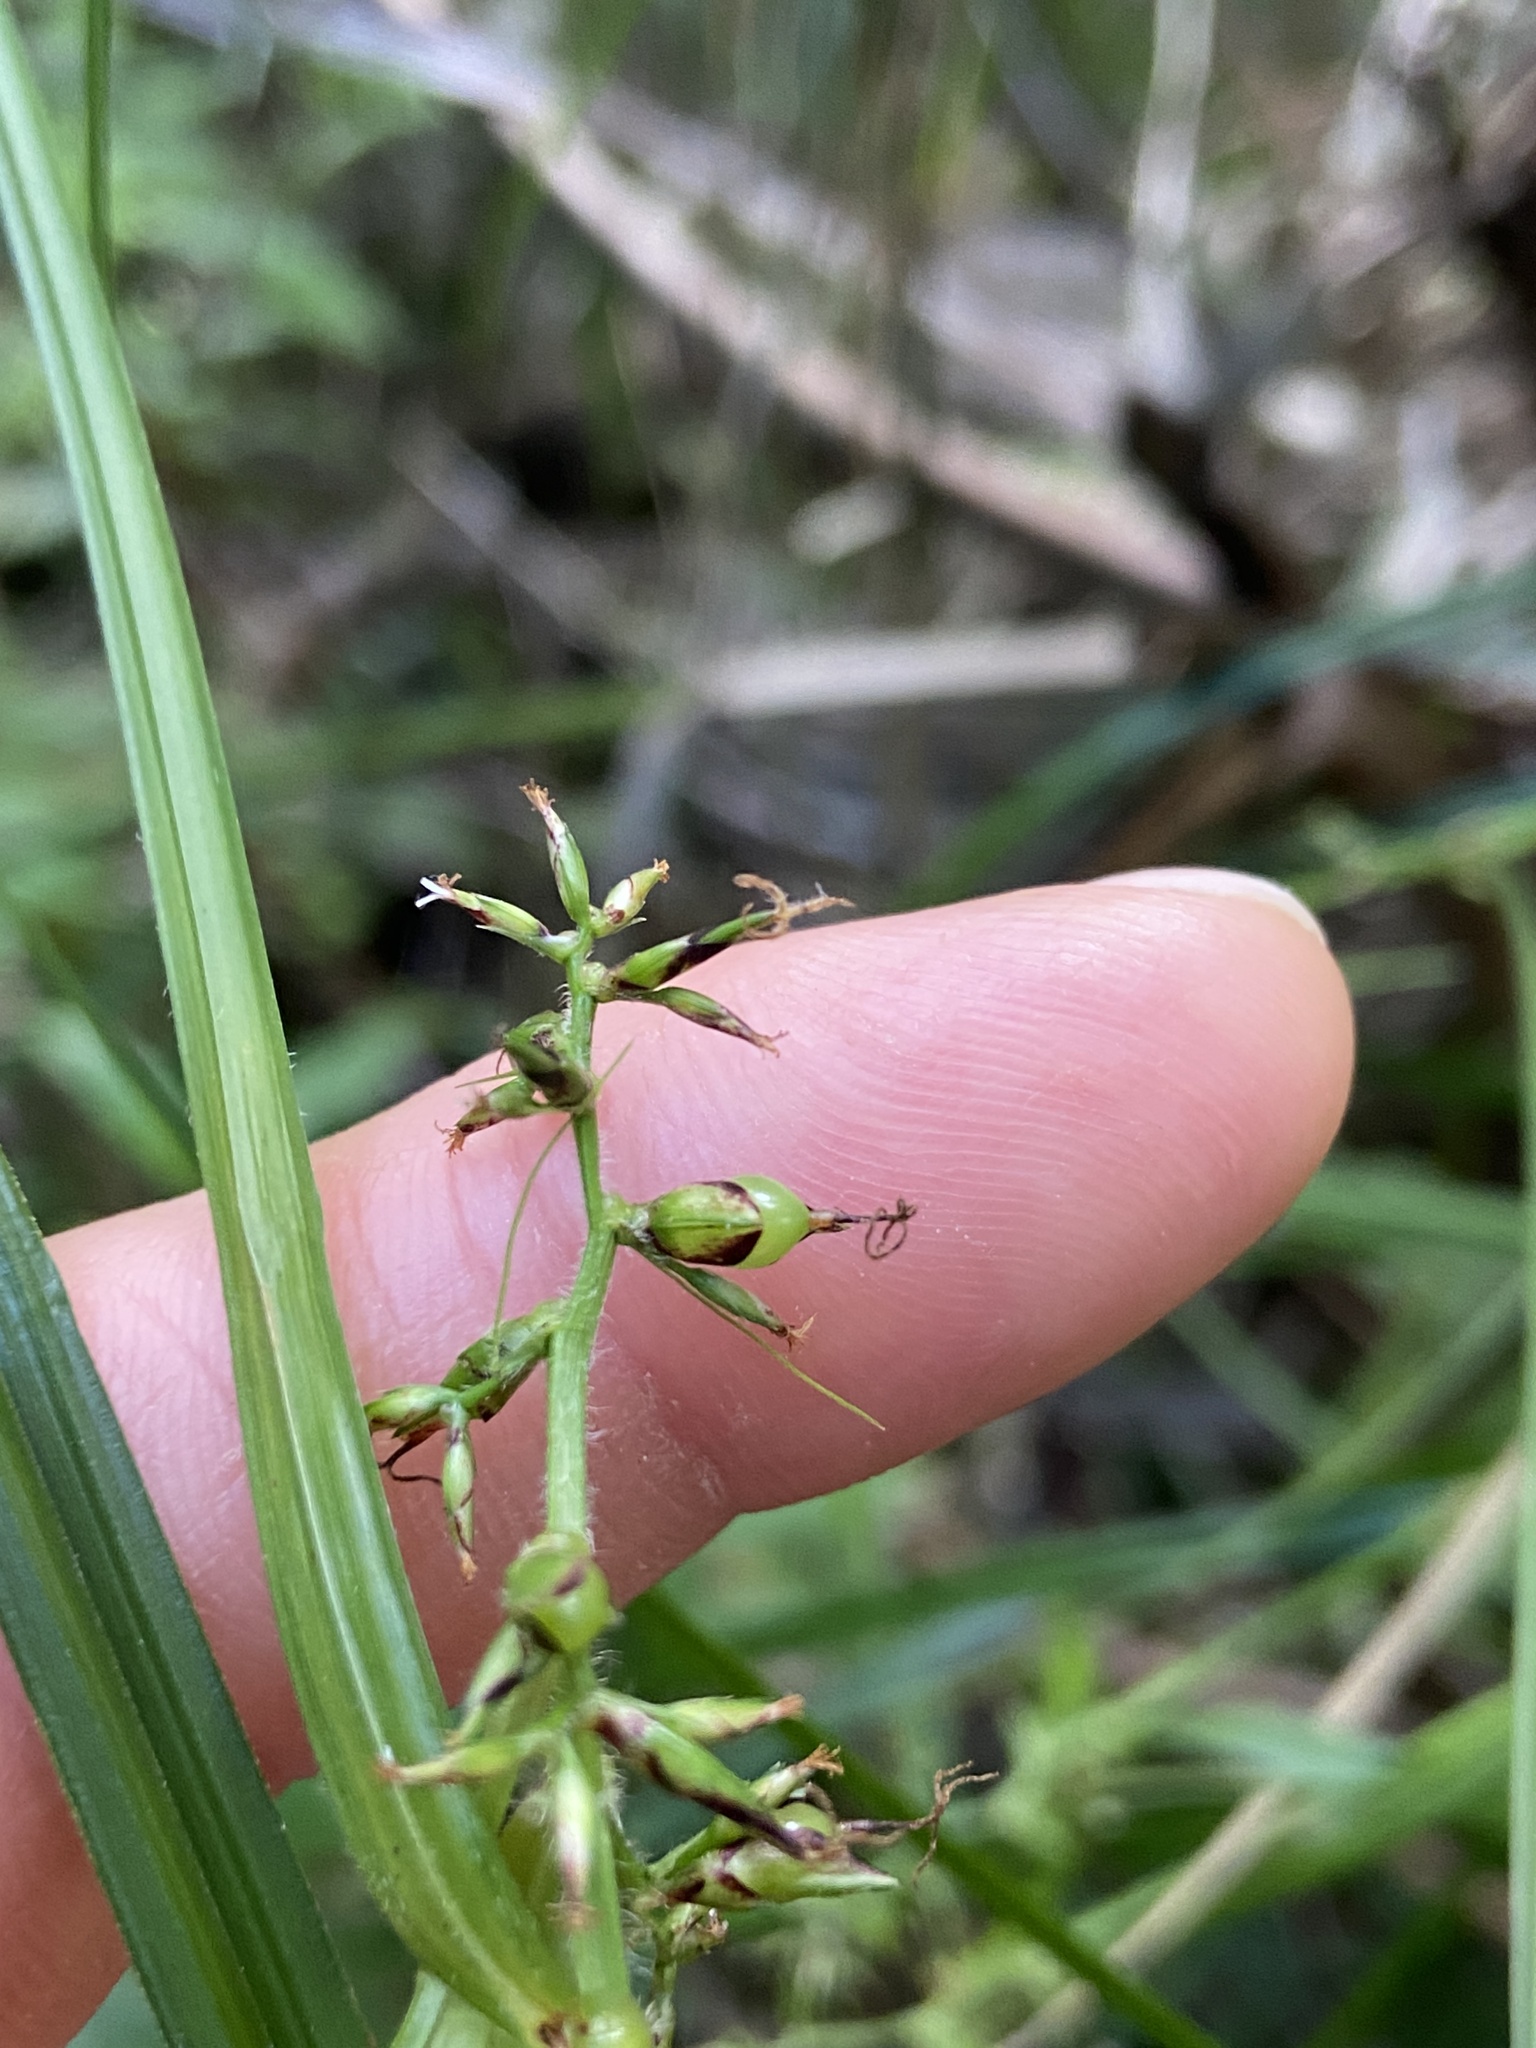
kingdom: Plantae
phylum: Tracheophyta
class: Liliopsida
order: Poales
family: Cyperaceae
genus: Scleria
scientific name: Scleria secans
